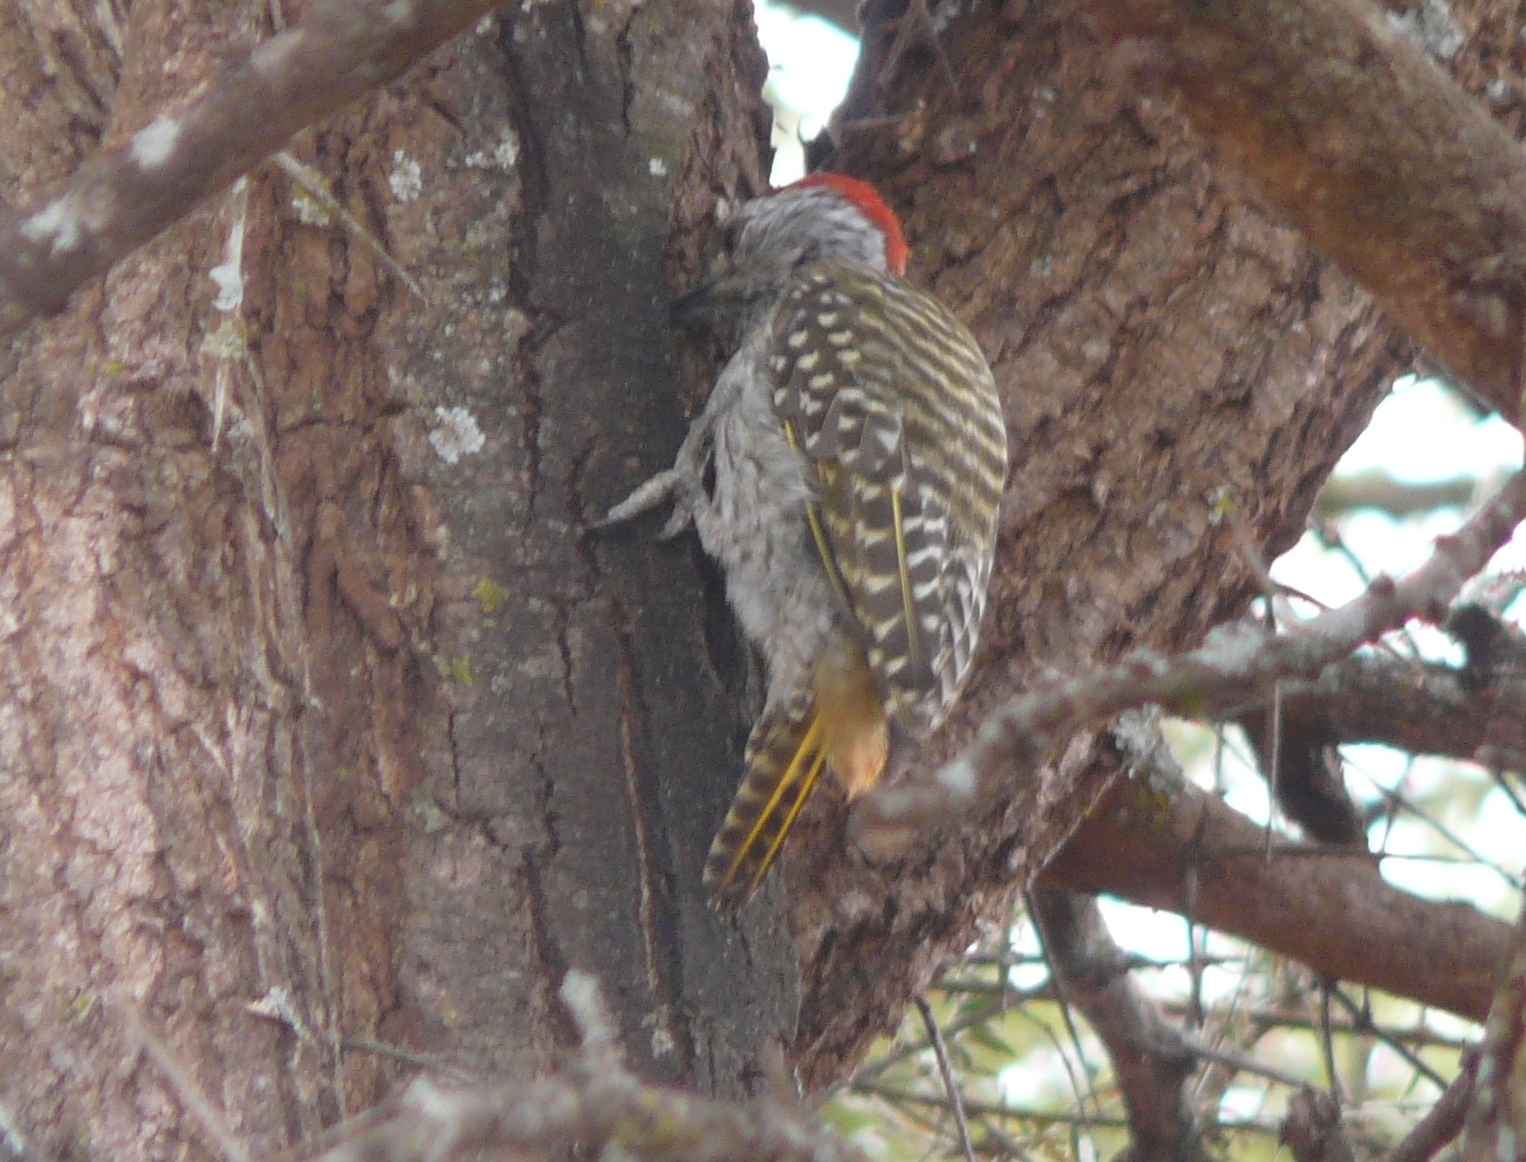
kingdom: Animalia
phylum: Chordata
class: Aves
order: Piciformes
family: Picidae
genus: Dendropicos
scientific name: Dendropicos fuscescens
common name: Cardinal woodpecker
